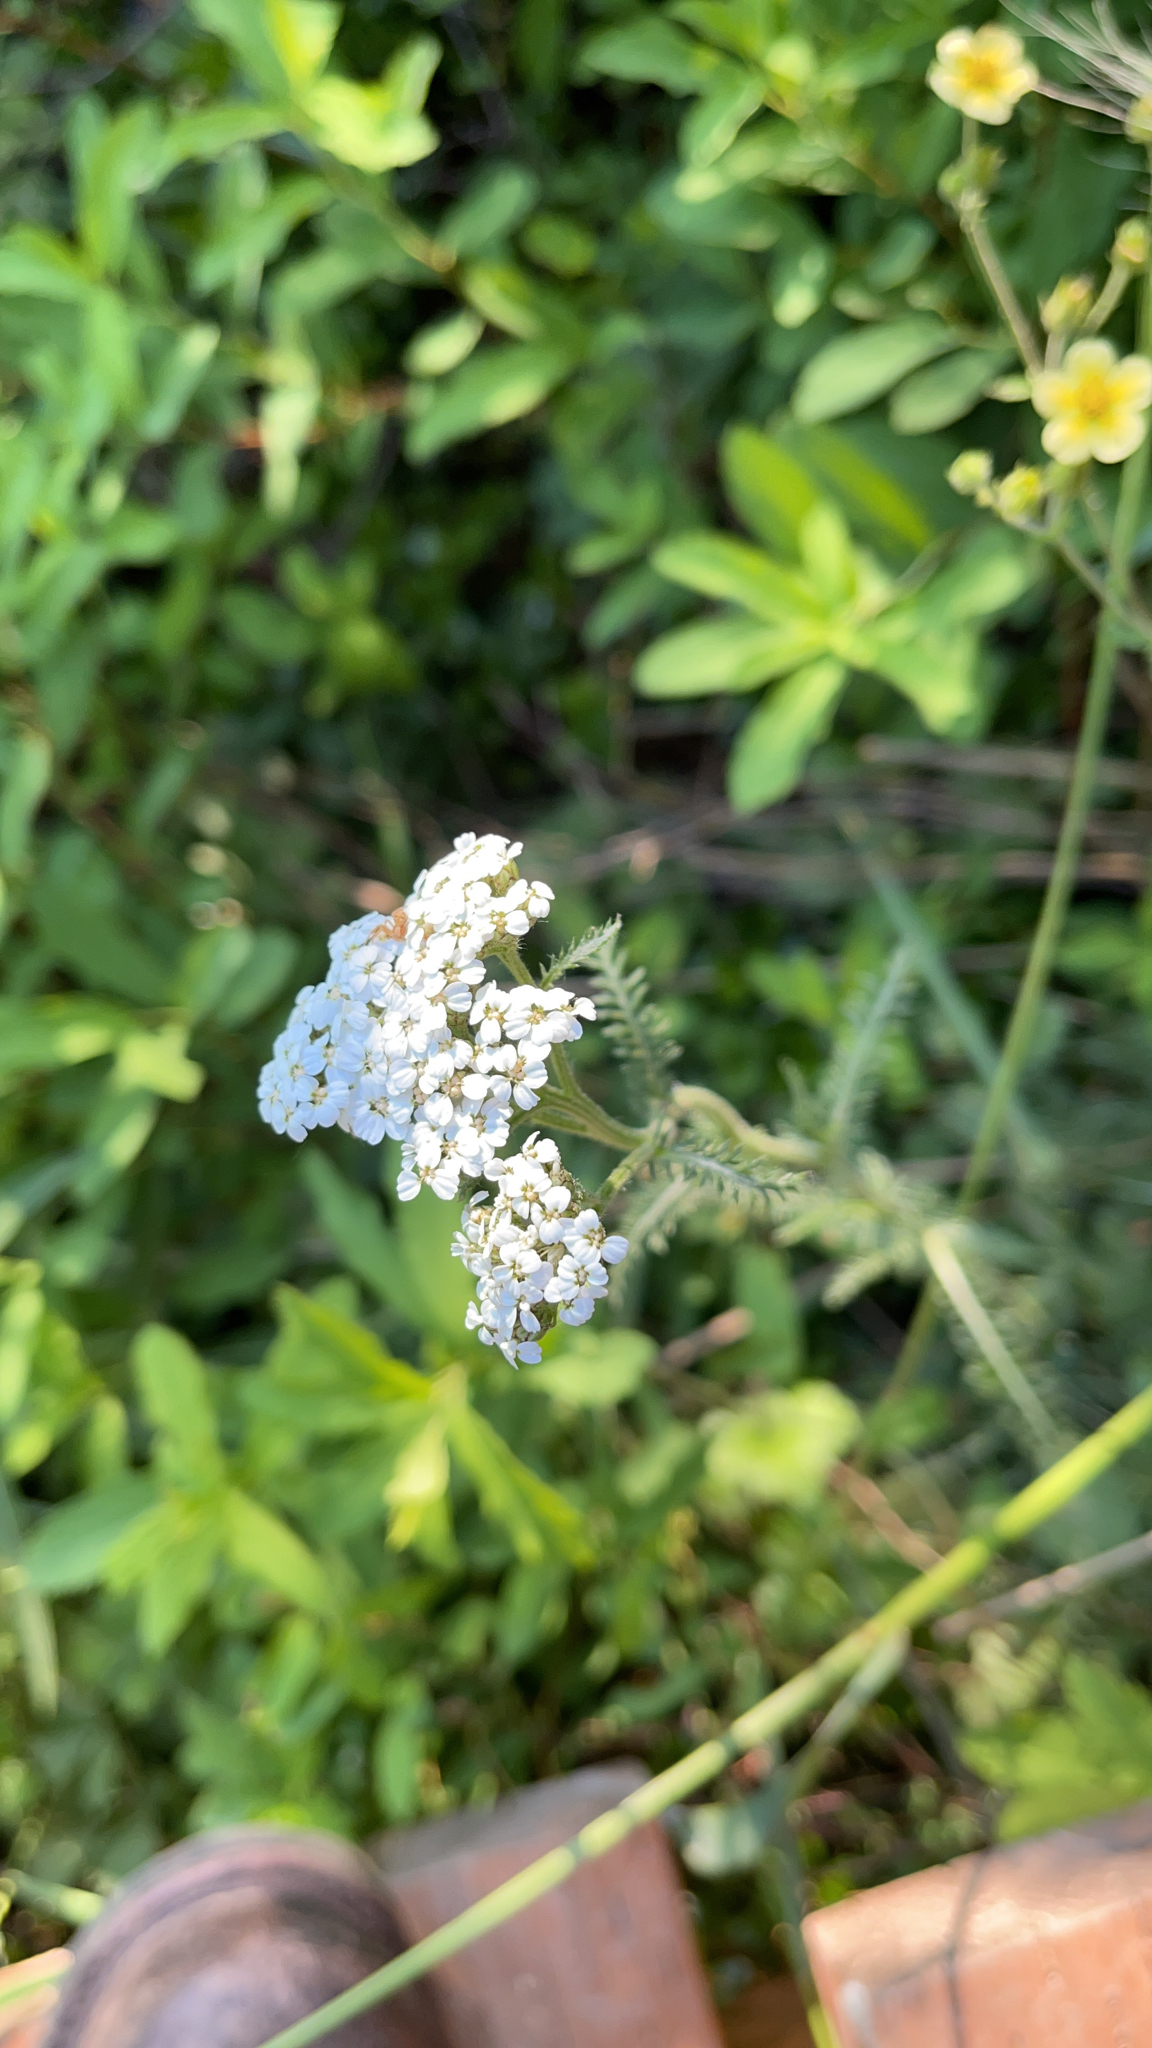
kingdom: Plantae
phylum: Tracheophyta
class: Magnoliopsida
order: Asterales
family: Asteraceae
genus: Achillea
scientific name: Achillea millefolium
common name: Yarrow
